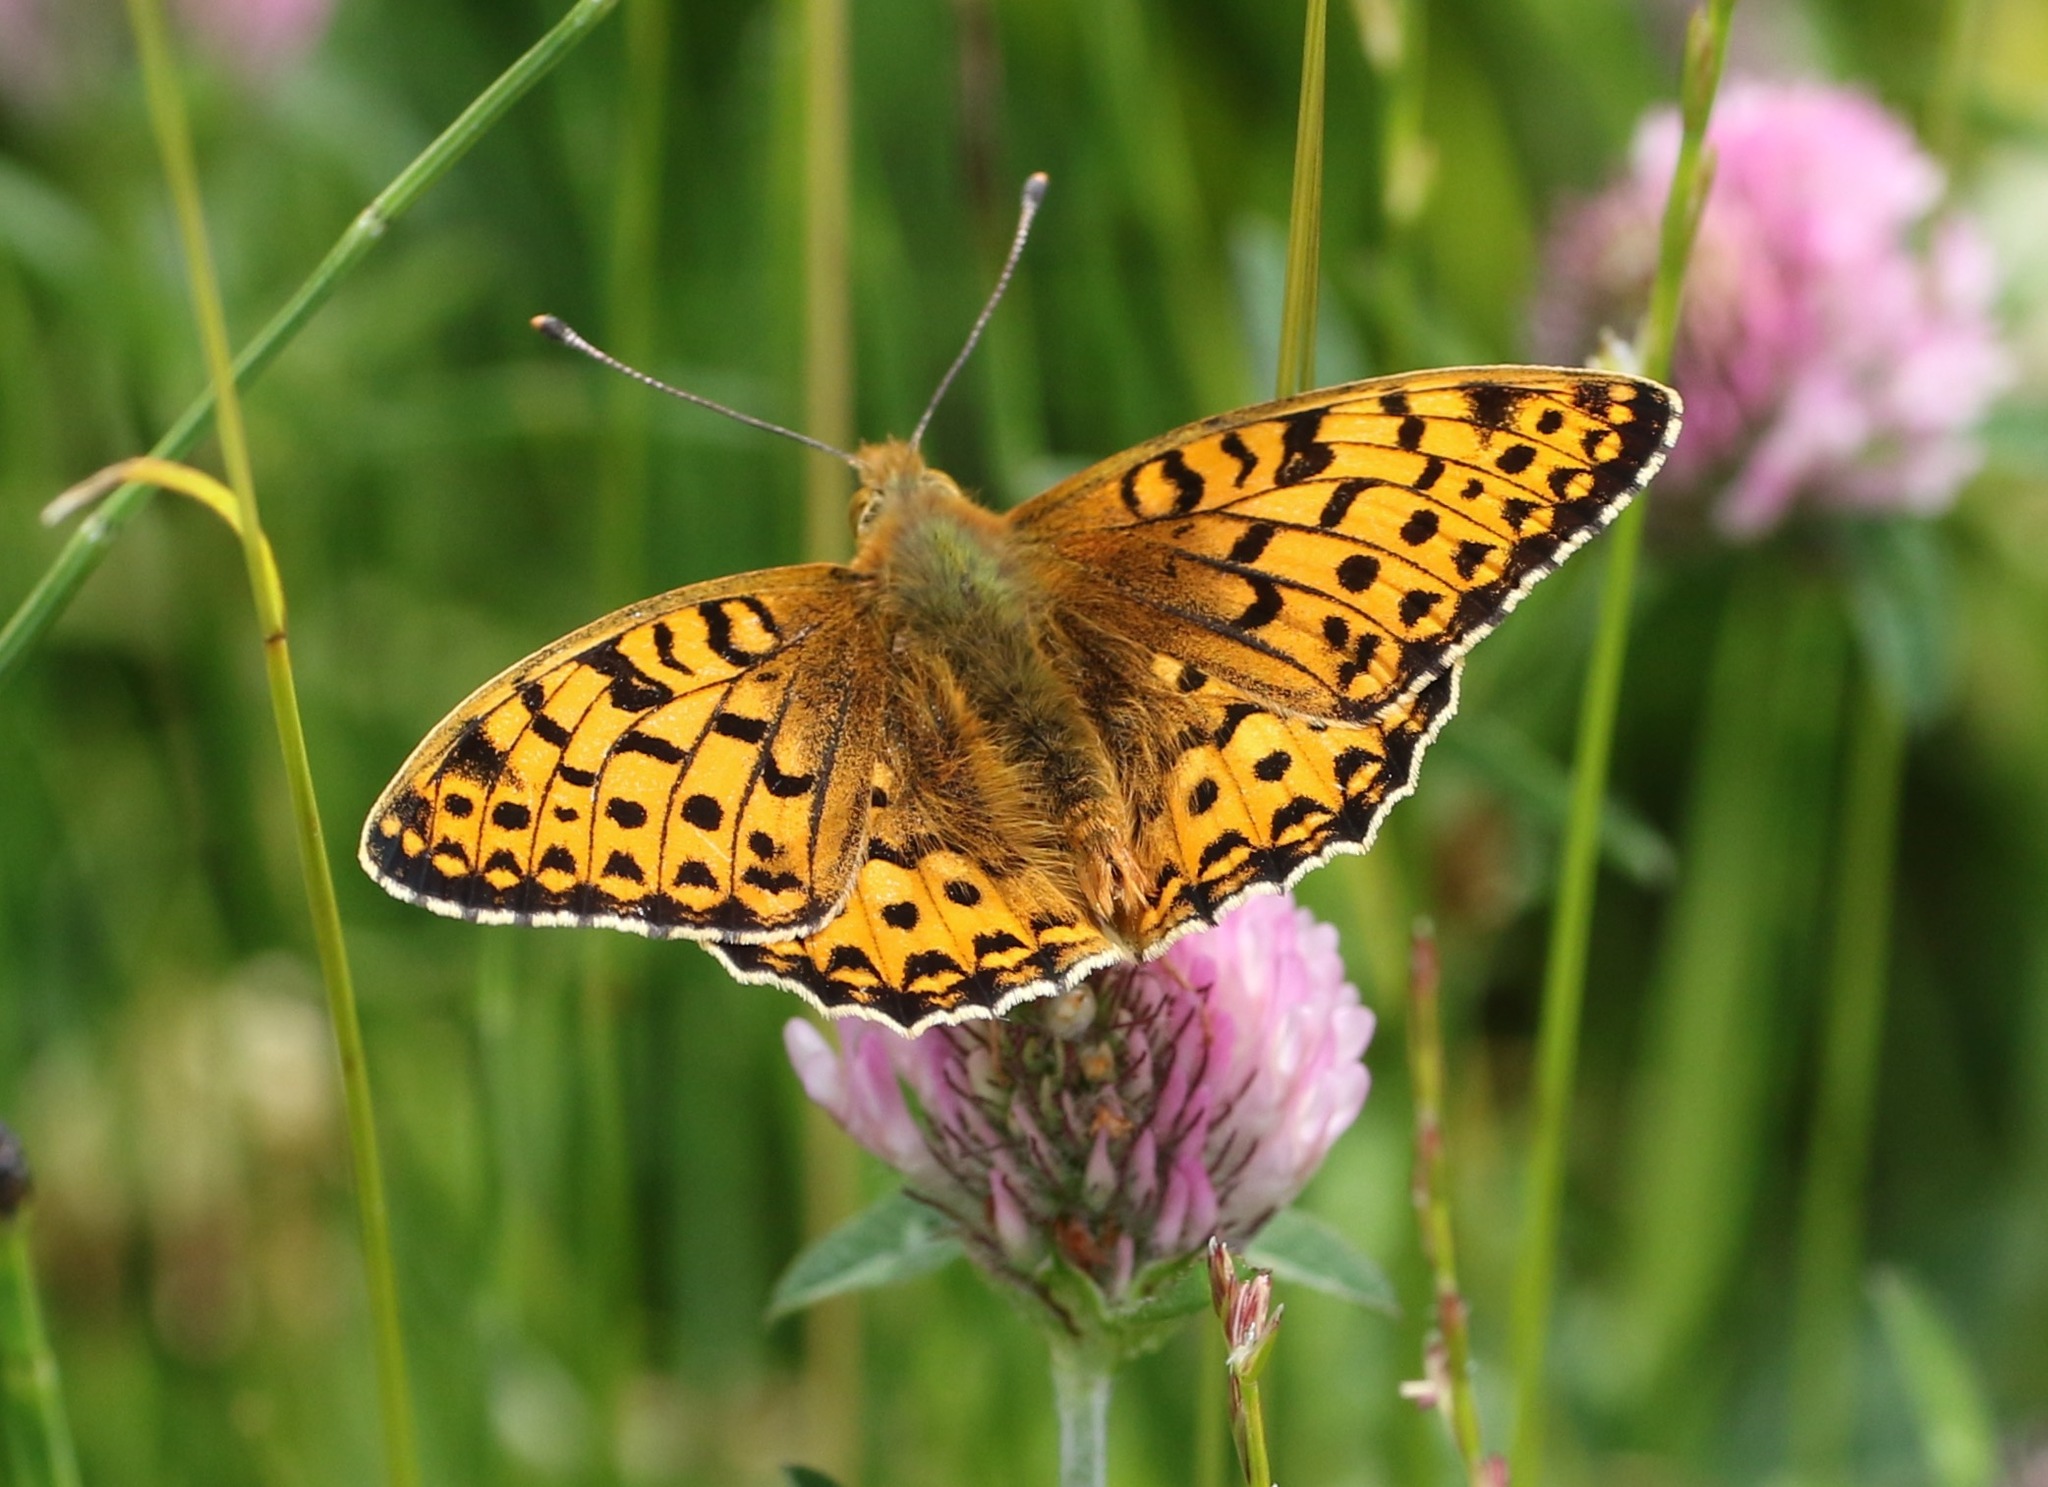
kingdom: Animalia
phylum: Arthropoda
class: Insecta
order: Lepidoptera
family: Nymphalidae
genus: Speyeria
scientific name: Speyeria aglaja
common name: Dark green fritillary
